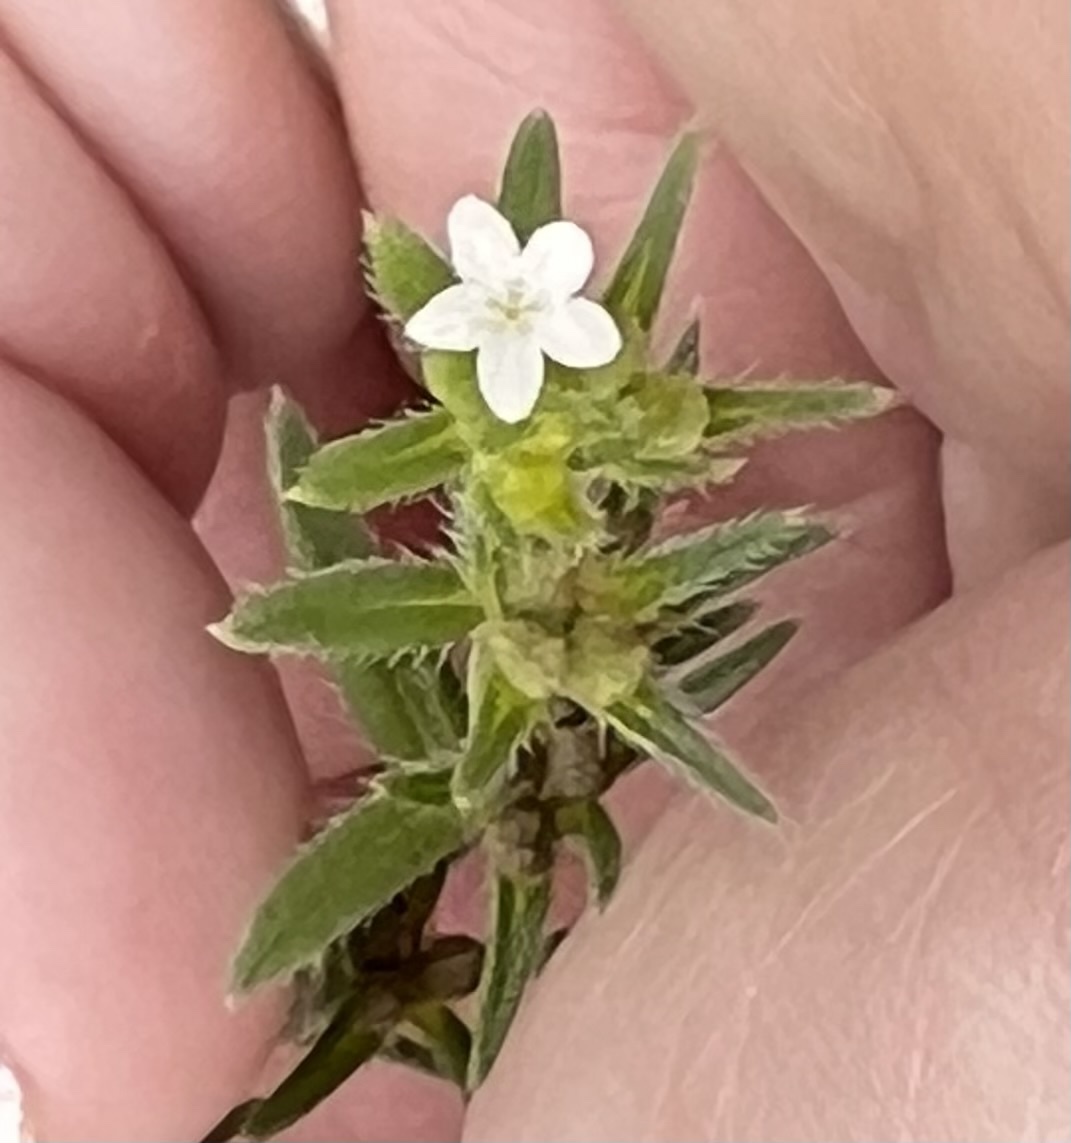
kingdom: Plantae
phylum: Tracheophyta
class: Magnoliopsida
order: Gentianales
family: Rubiaceae
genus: Hexasepalum
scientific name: Hexasepalum teres
